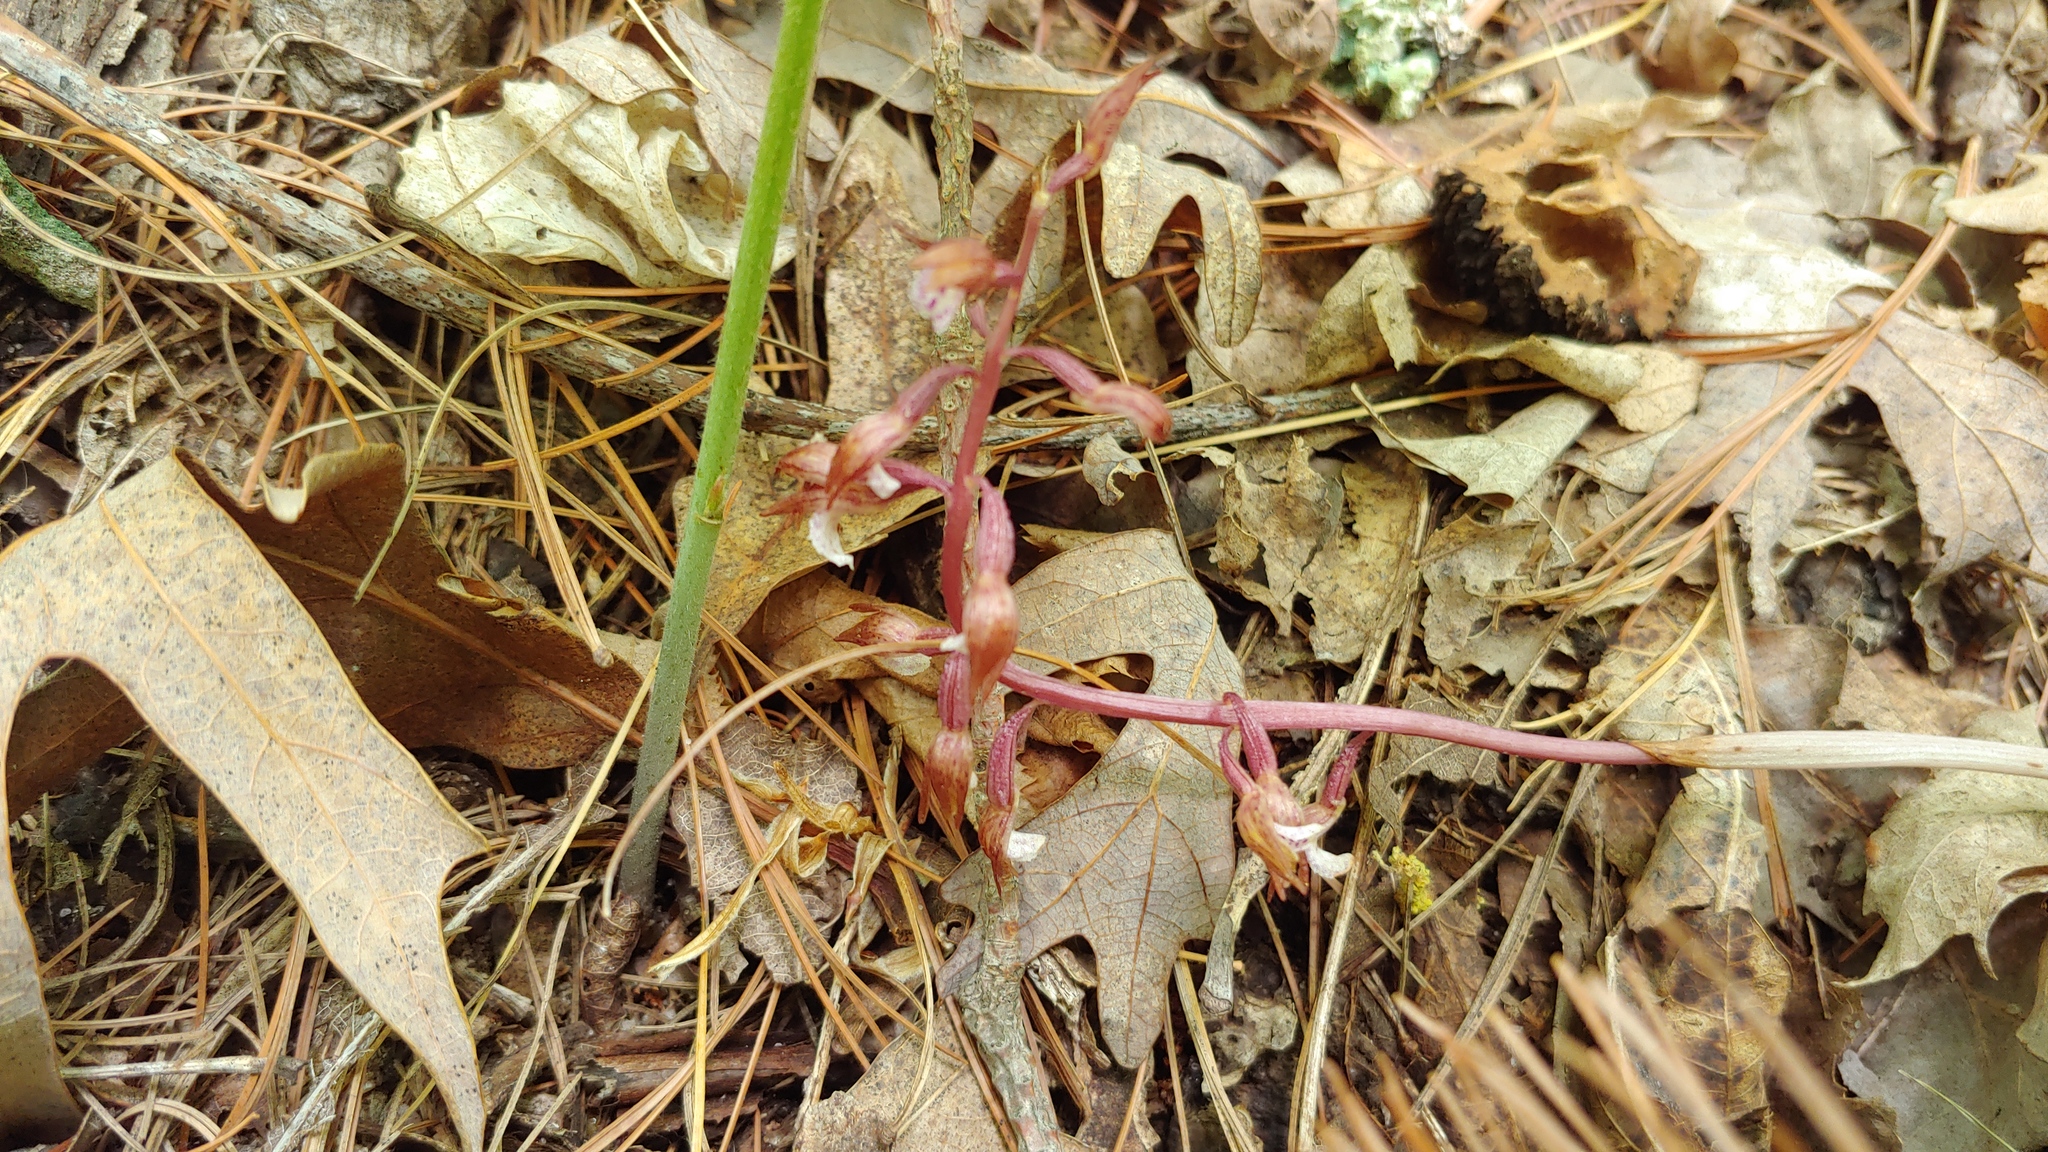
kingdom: Plantae
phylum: Tracheophyta
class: Liliopsida
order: Asparagales
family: Orchidaceae
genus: Corallorhiza
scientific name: Corallorhiza wisteriana
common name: Spring coralroot
